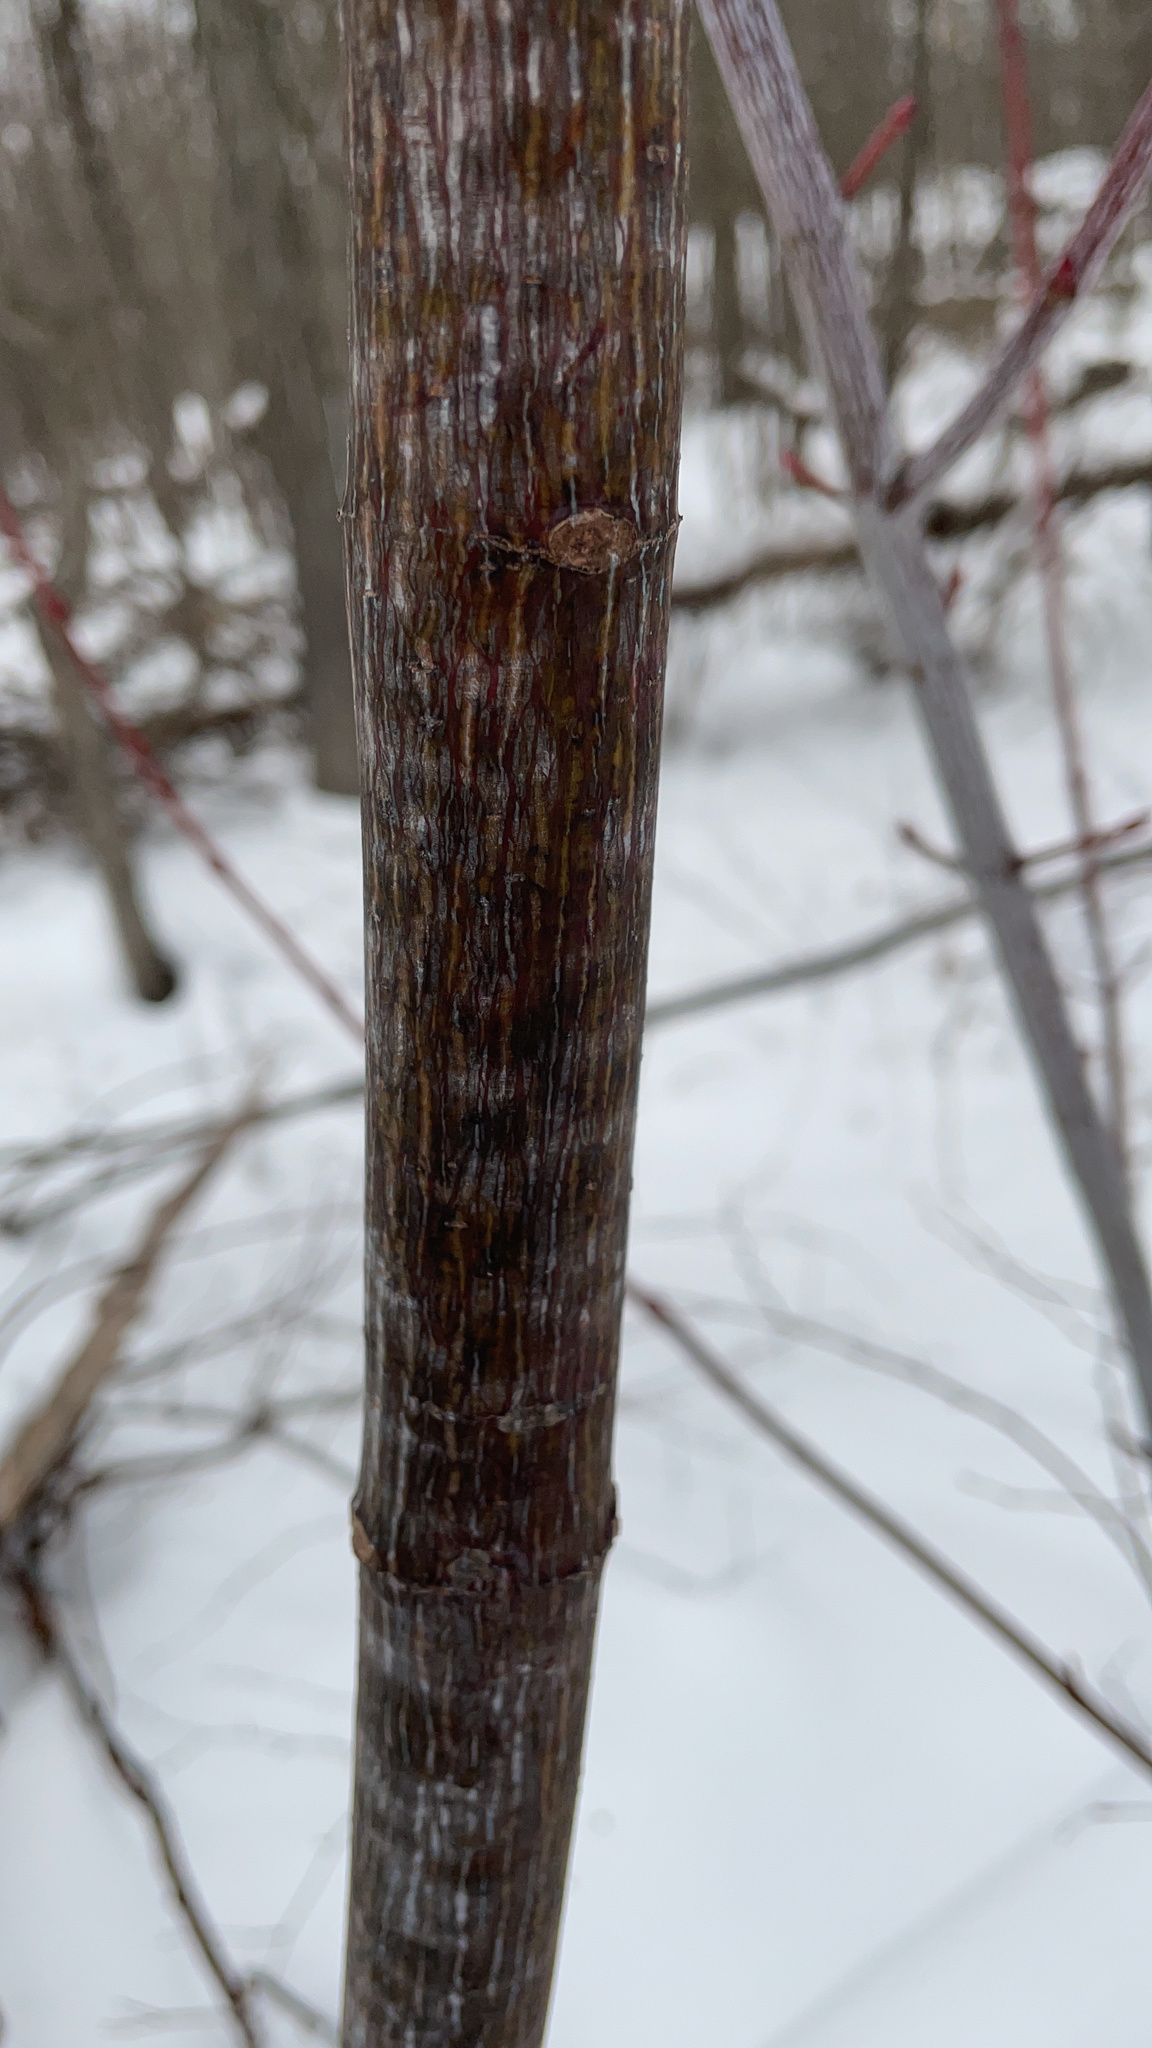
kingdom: Plantae
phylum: Tracheophyta
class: Magnoliopsida
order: Sapindales
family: Sapindaceae
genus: Acer
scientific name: Acer pensylvanicum
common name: Moosewood
